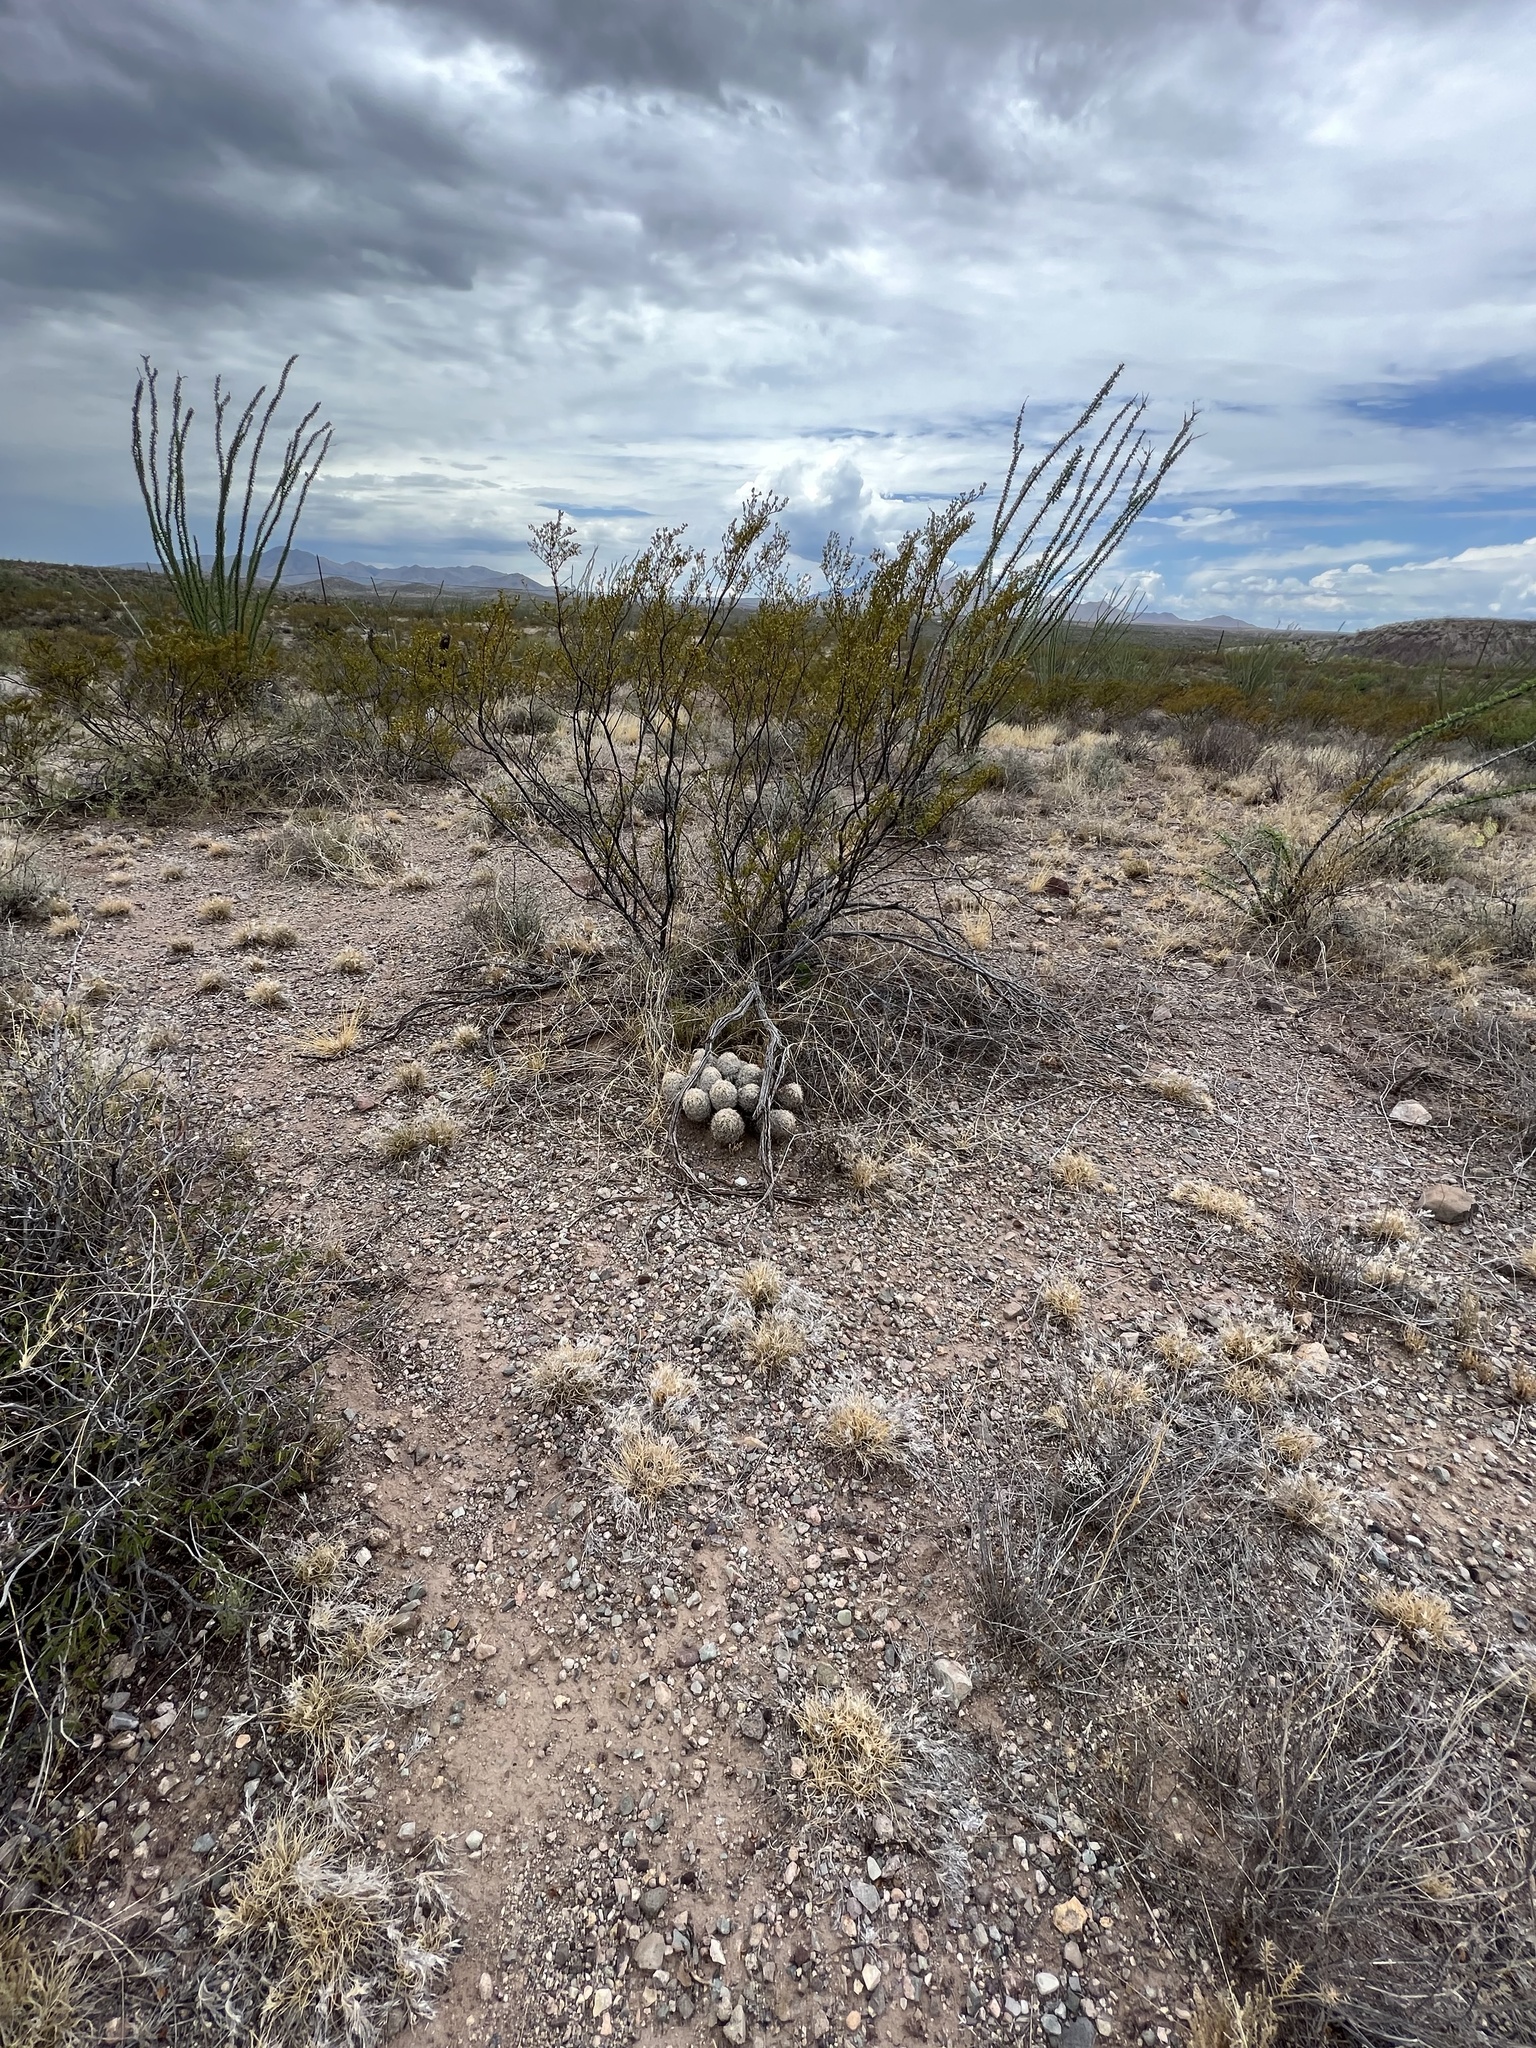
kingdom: Plantae
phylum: Tracheophyta
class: Magnoliopsida
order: Zygophyllales
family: Zygophyllaceae
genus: Larrea
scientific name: Larrea tridentata
